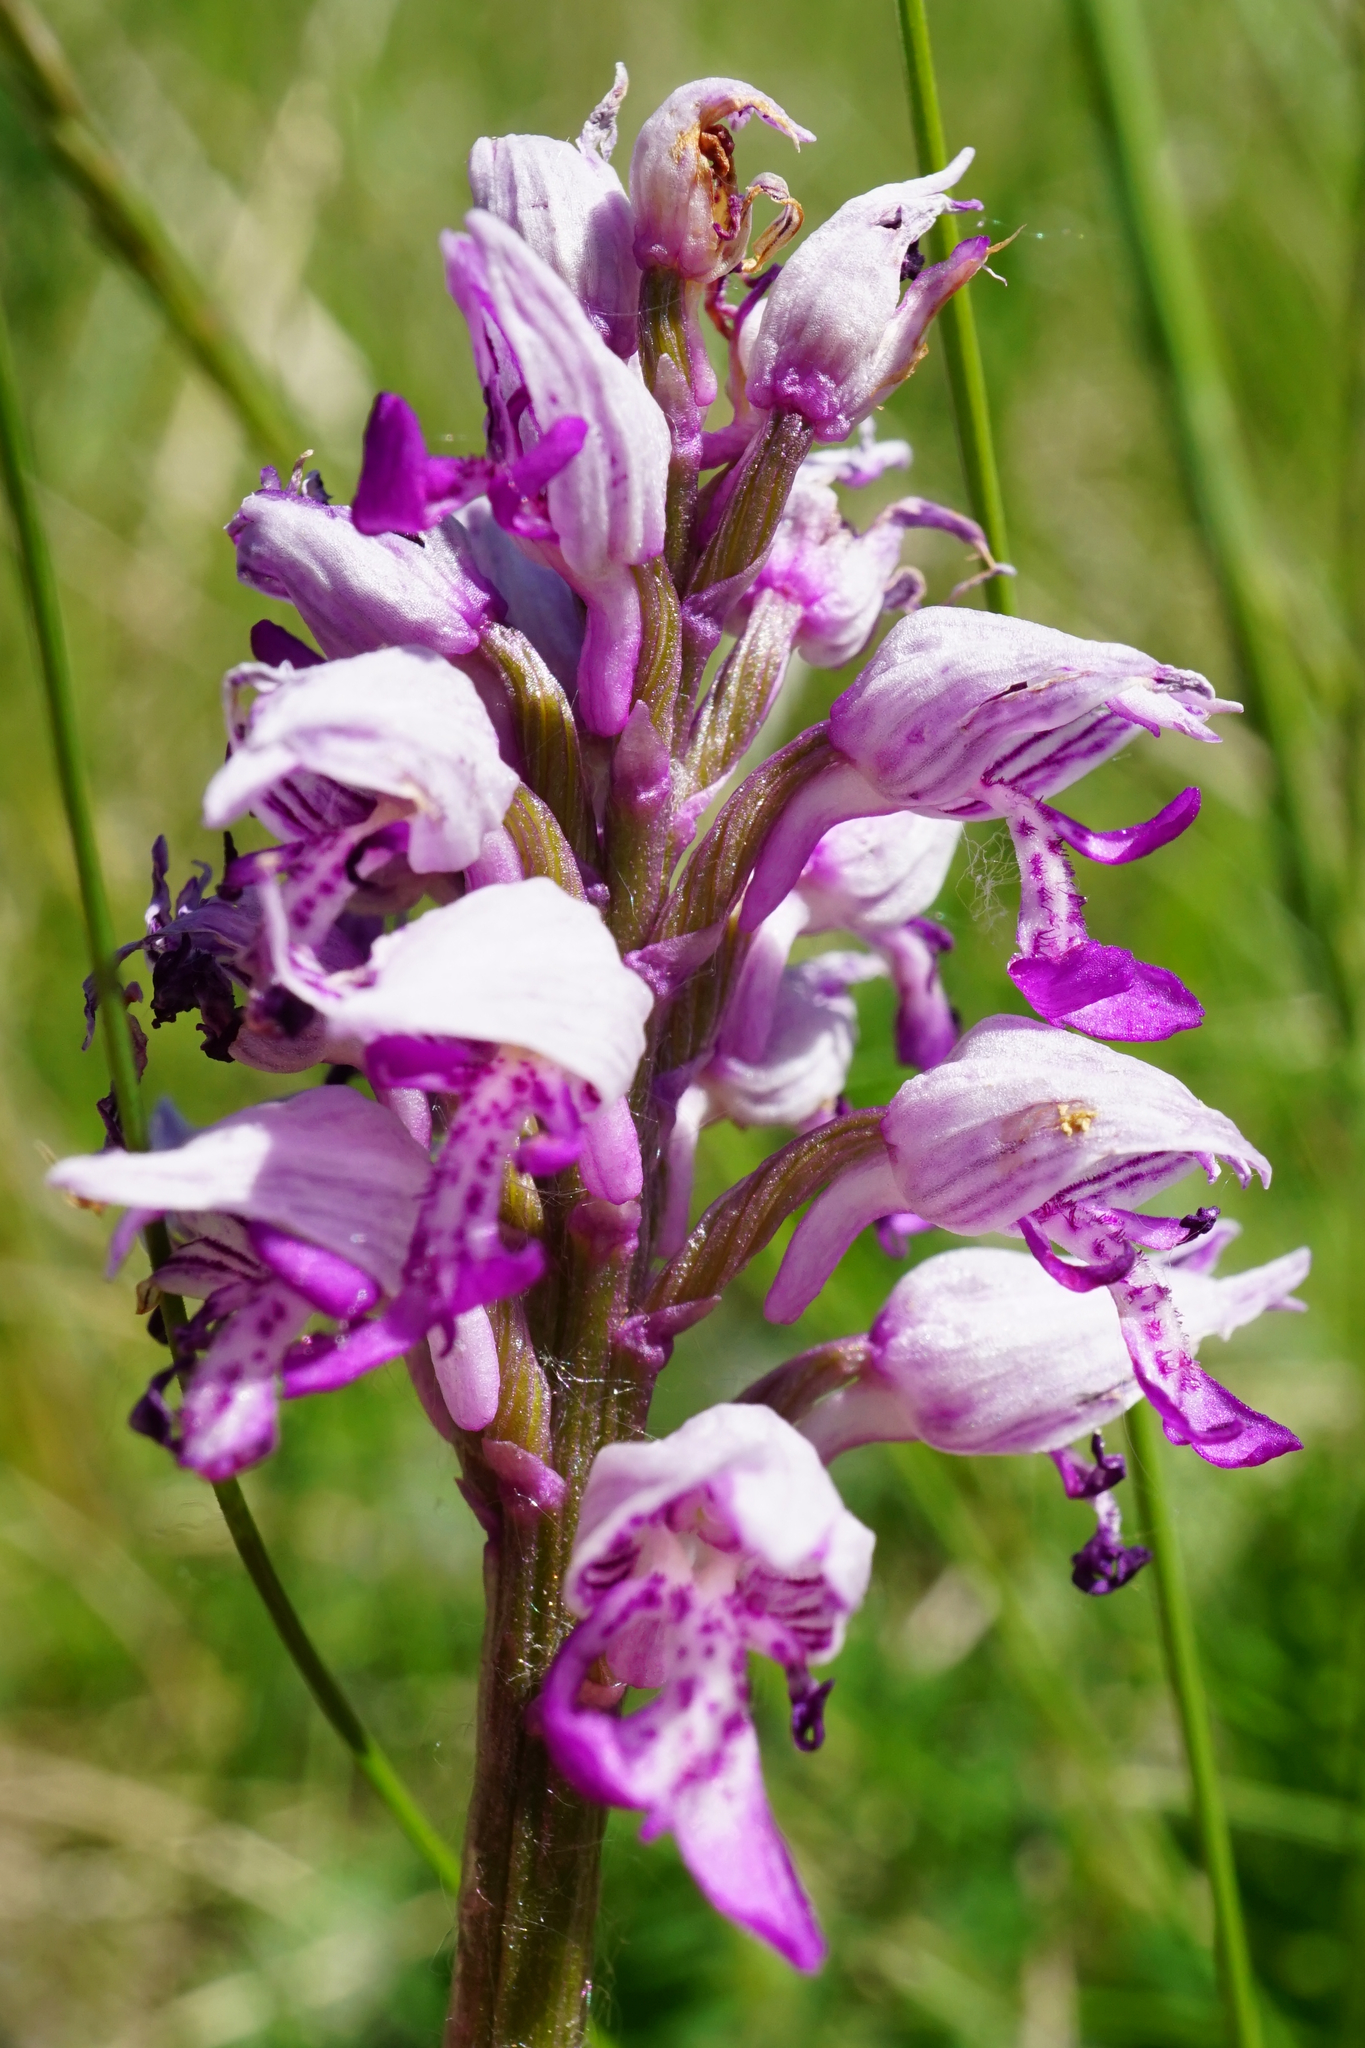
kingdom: Plantae
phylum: Tracheophyta
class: Liliopsida
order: Asparagales
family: Orchidaceae
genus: Orchis
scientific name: Orchis militaris
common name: Military orchid
